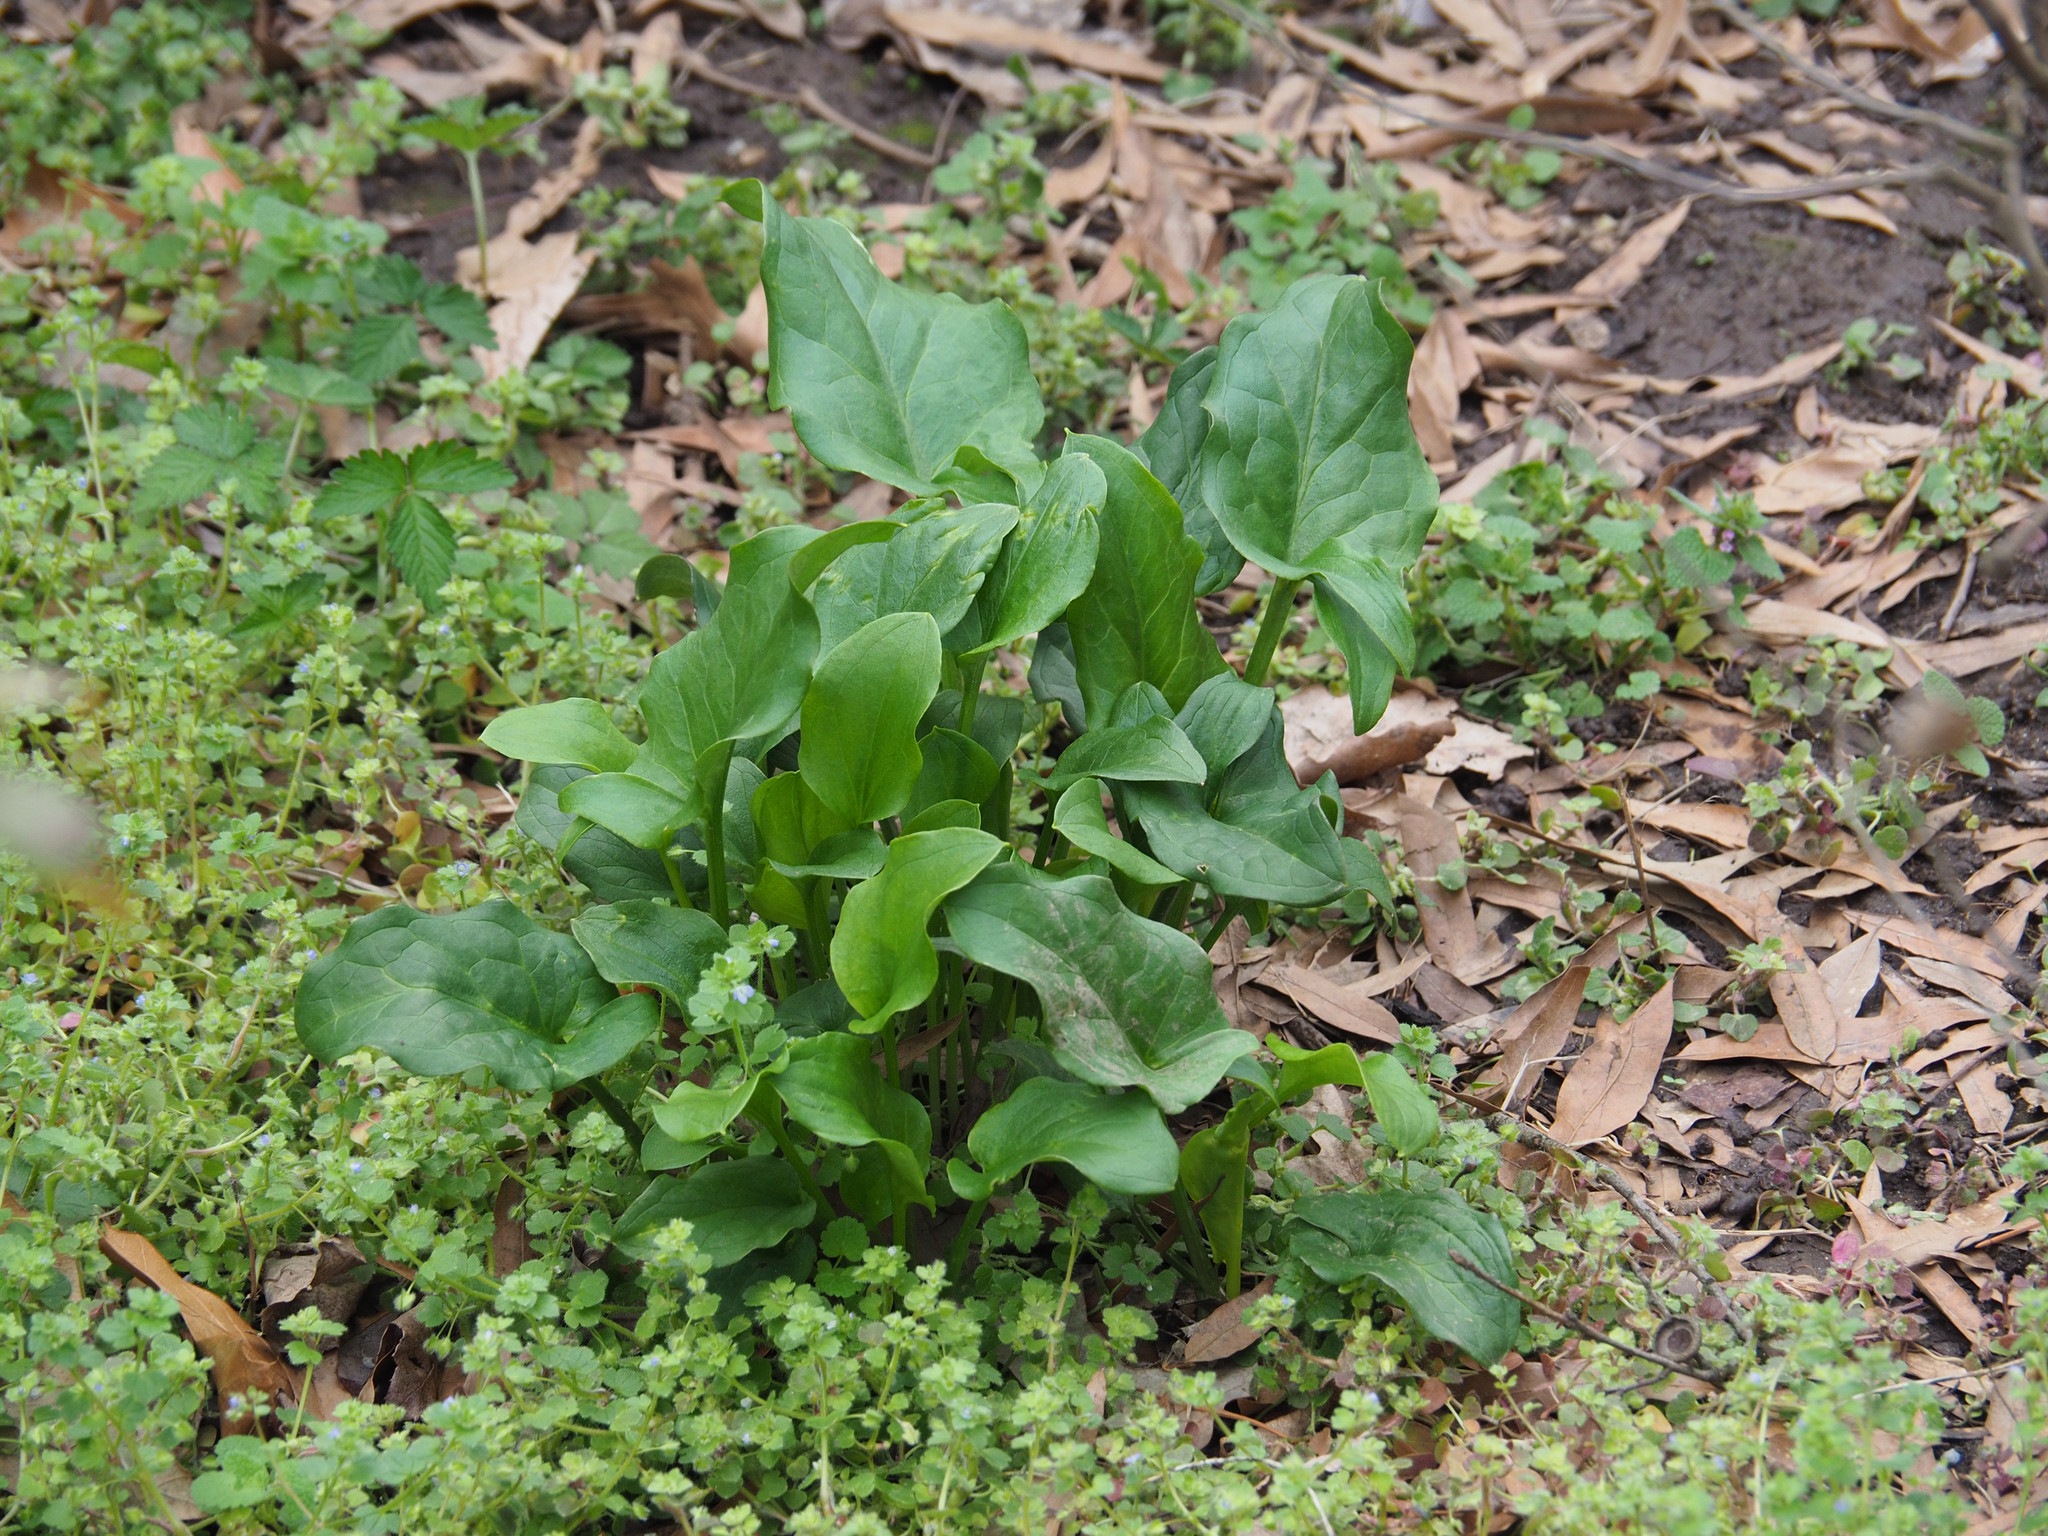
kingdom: Plantae
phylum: Tracheophyta
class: Liliopsida
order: Alismatales
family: Araceae
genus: Arum
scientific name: Arum italicum
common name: Italian lords-and-ladies
